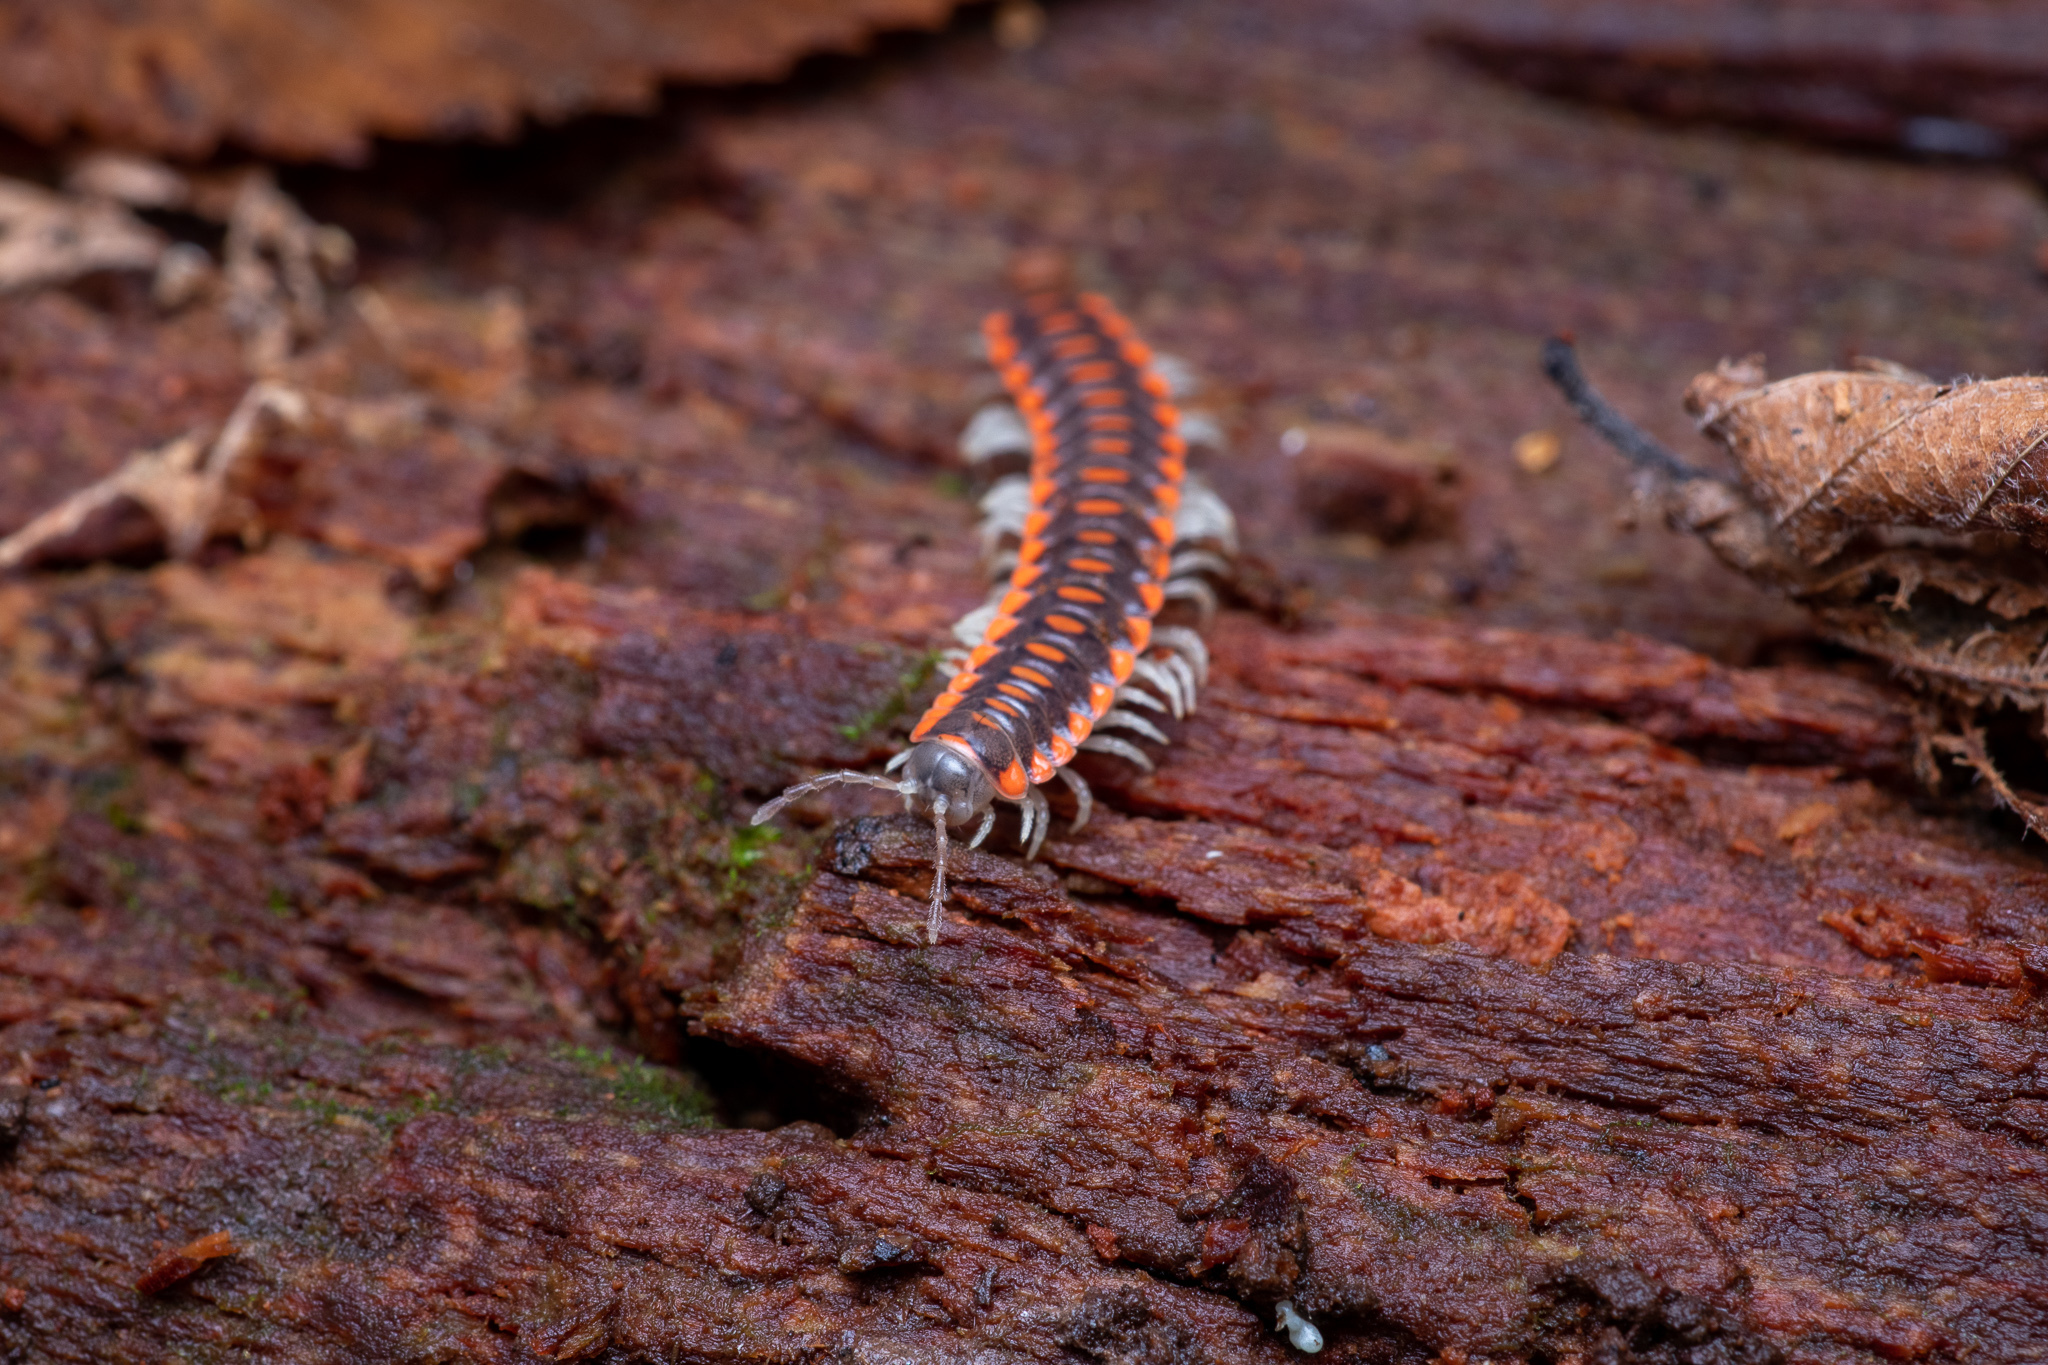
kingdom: Animalia
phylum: Arthropoda
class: Diplopoda
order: Polydesmida
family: Xystodesmidae
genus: Euryurus
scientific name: Euryurus maculatus
